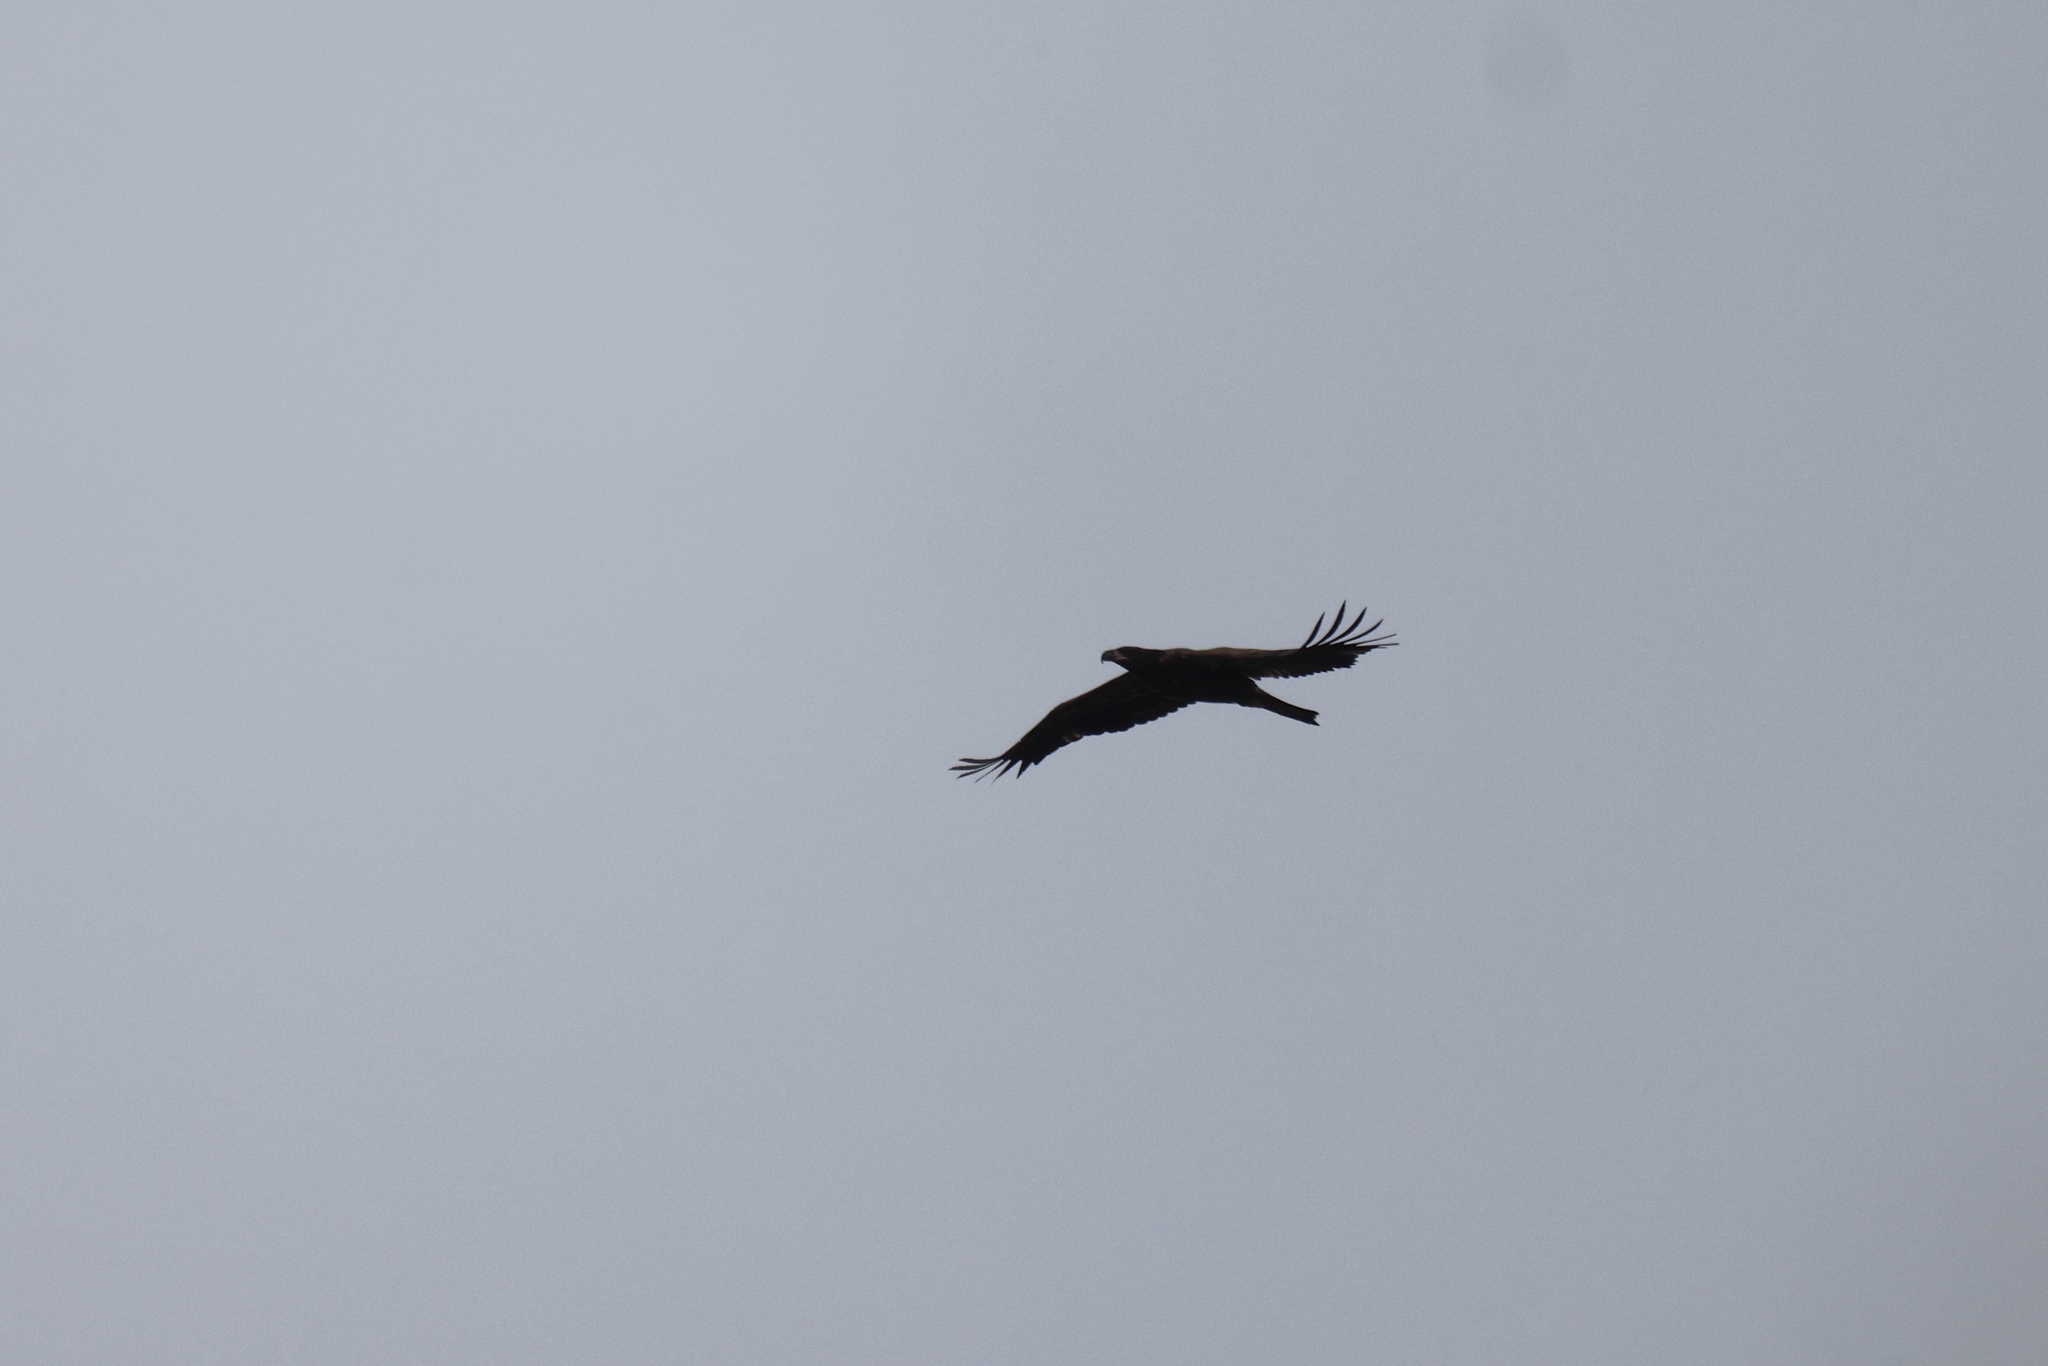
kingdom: Animalia
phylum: Chordata
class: Aves
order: Accipitriformes
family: Accipitridae
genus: Haliaeetus
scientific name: Haliaeetus leucocephalus
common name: Bald eagle
